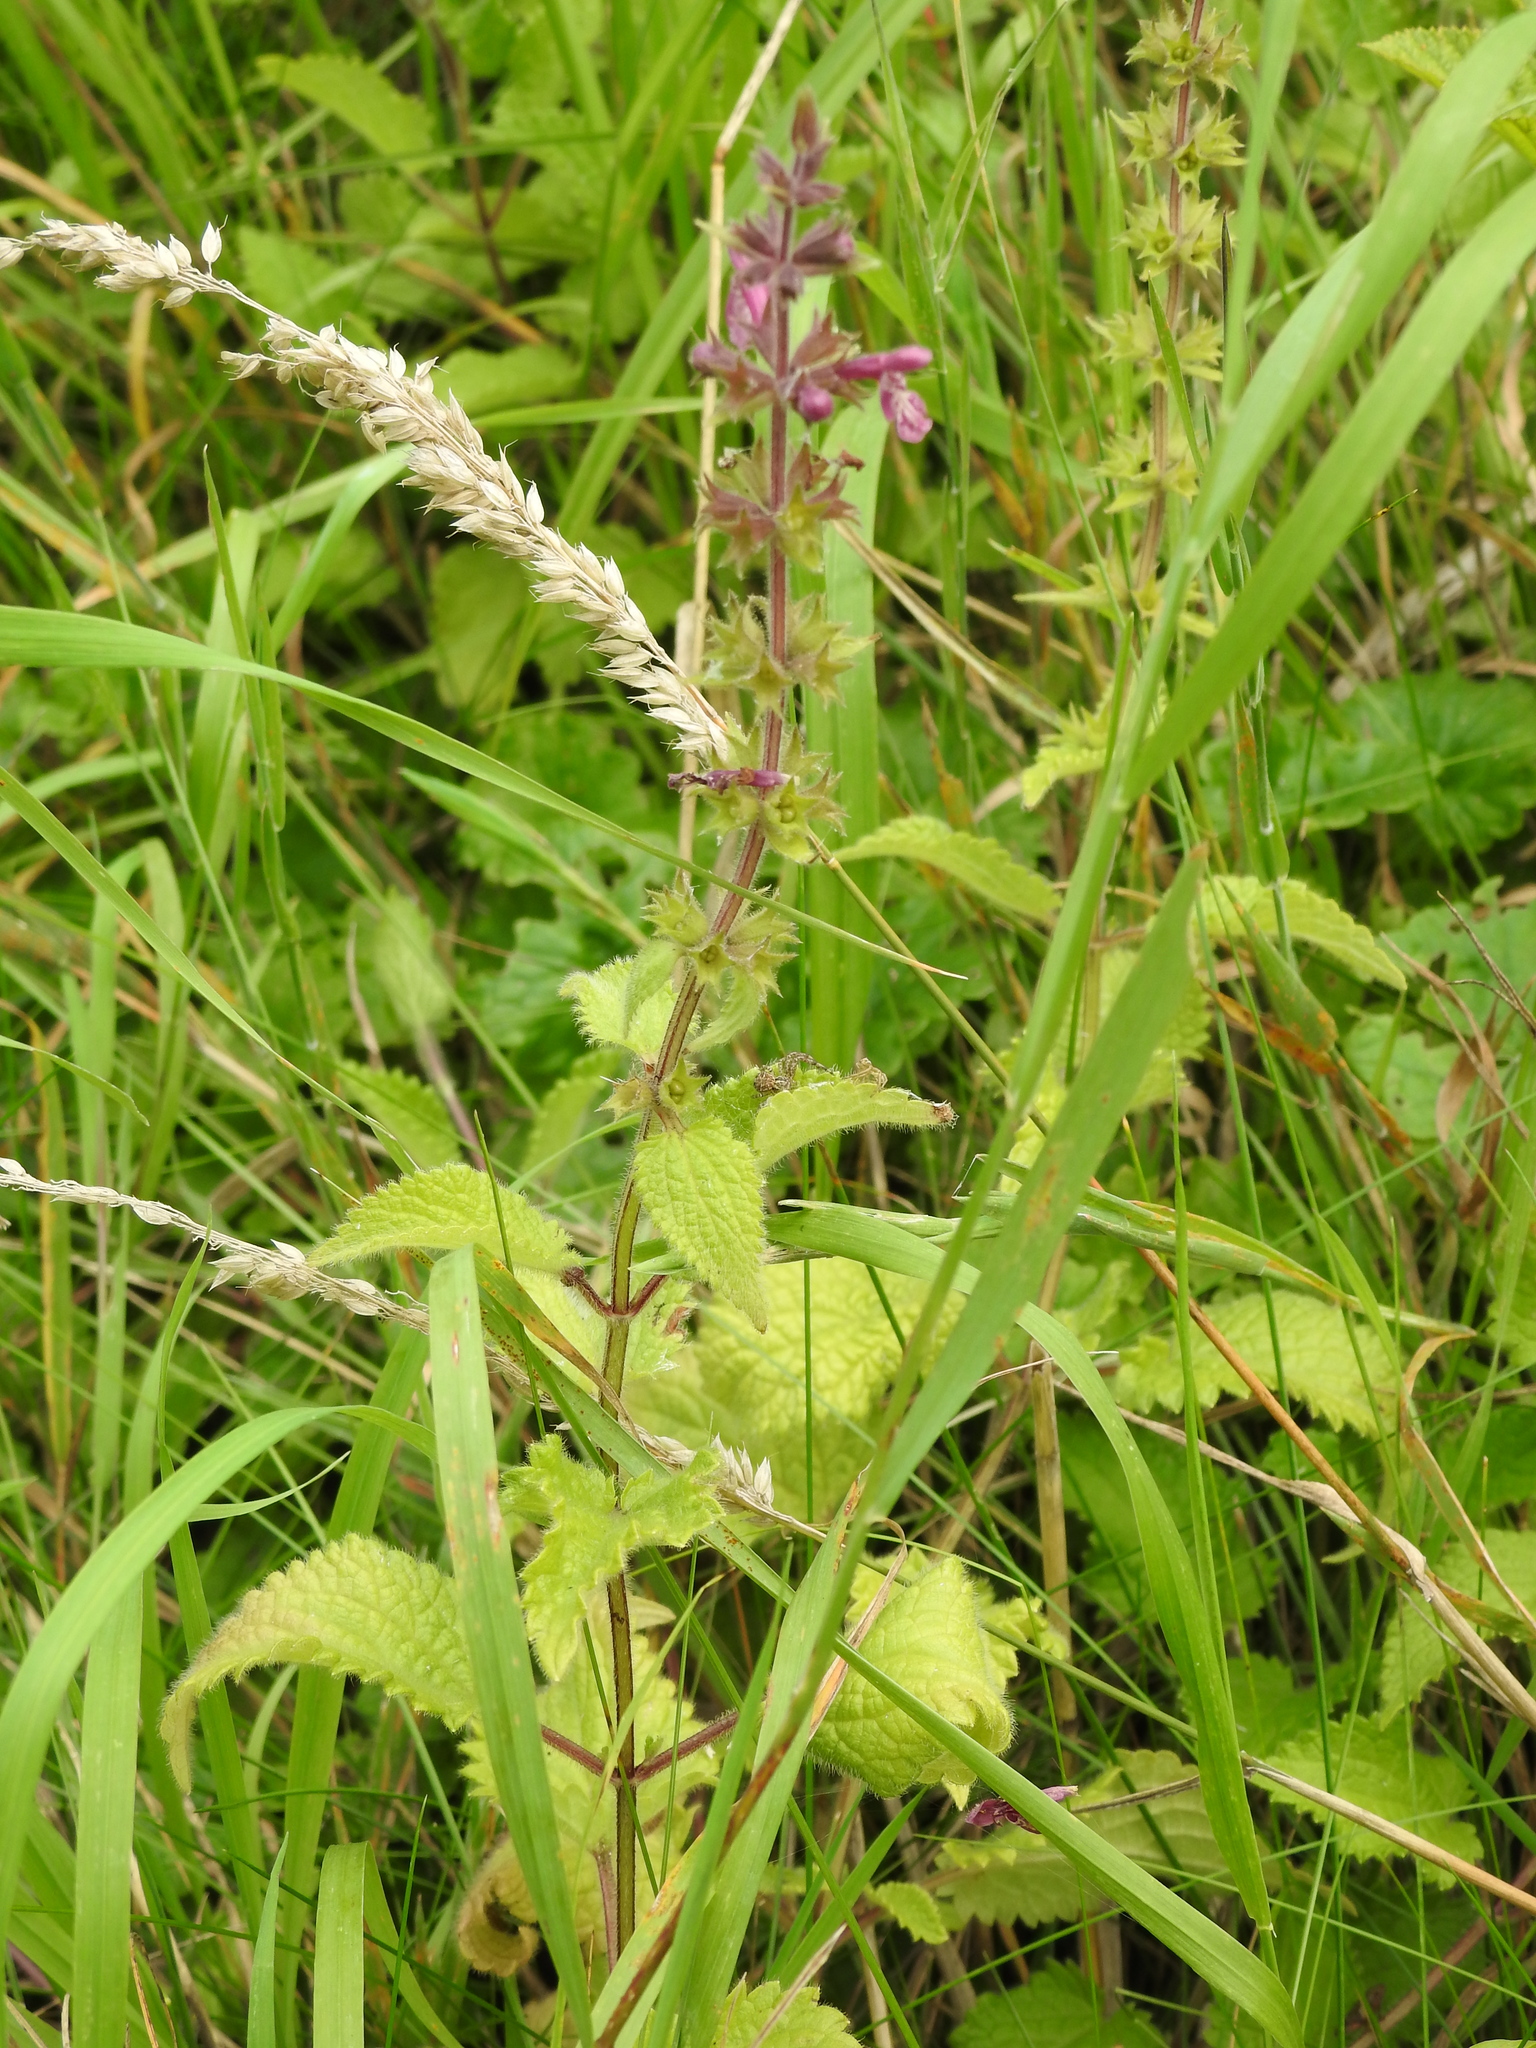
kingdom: Plantae
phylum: Tracheophyta
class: Magnoliopsida
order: Lamiales
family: Lamiaceae
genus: Stachys
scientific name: Stachys sylvatica
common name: Hedge woundwort
